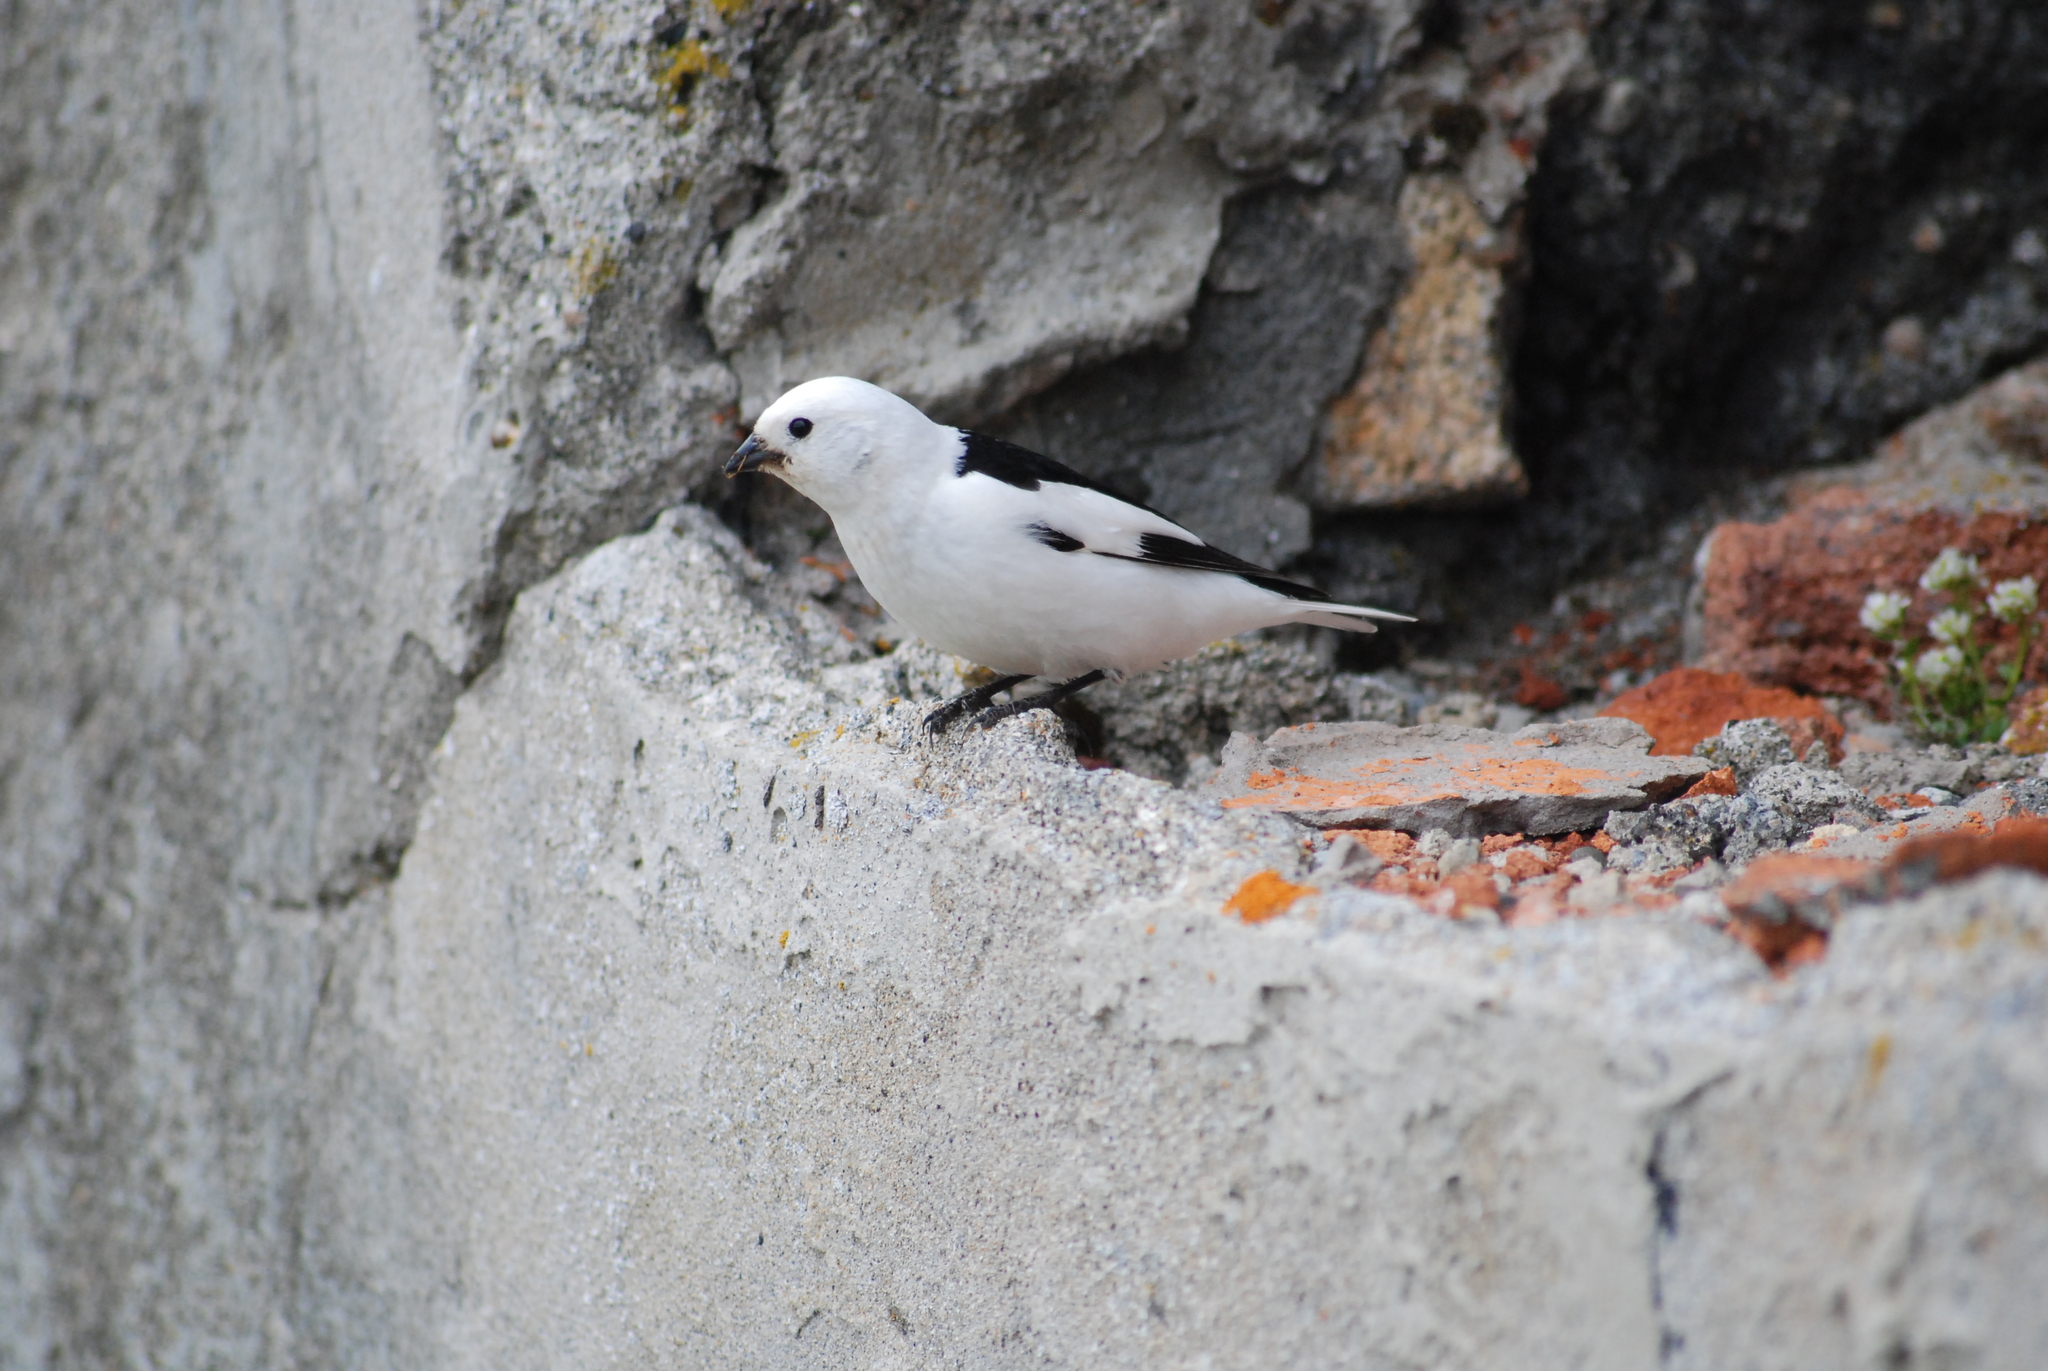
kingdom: Animalia
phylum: Chordata
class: Aves
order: Passeriformes
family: Calcariidae
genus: Plectrophenax
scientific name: Plectrophenax nivalis
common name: Snow bunting
